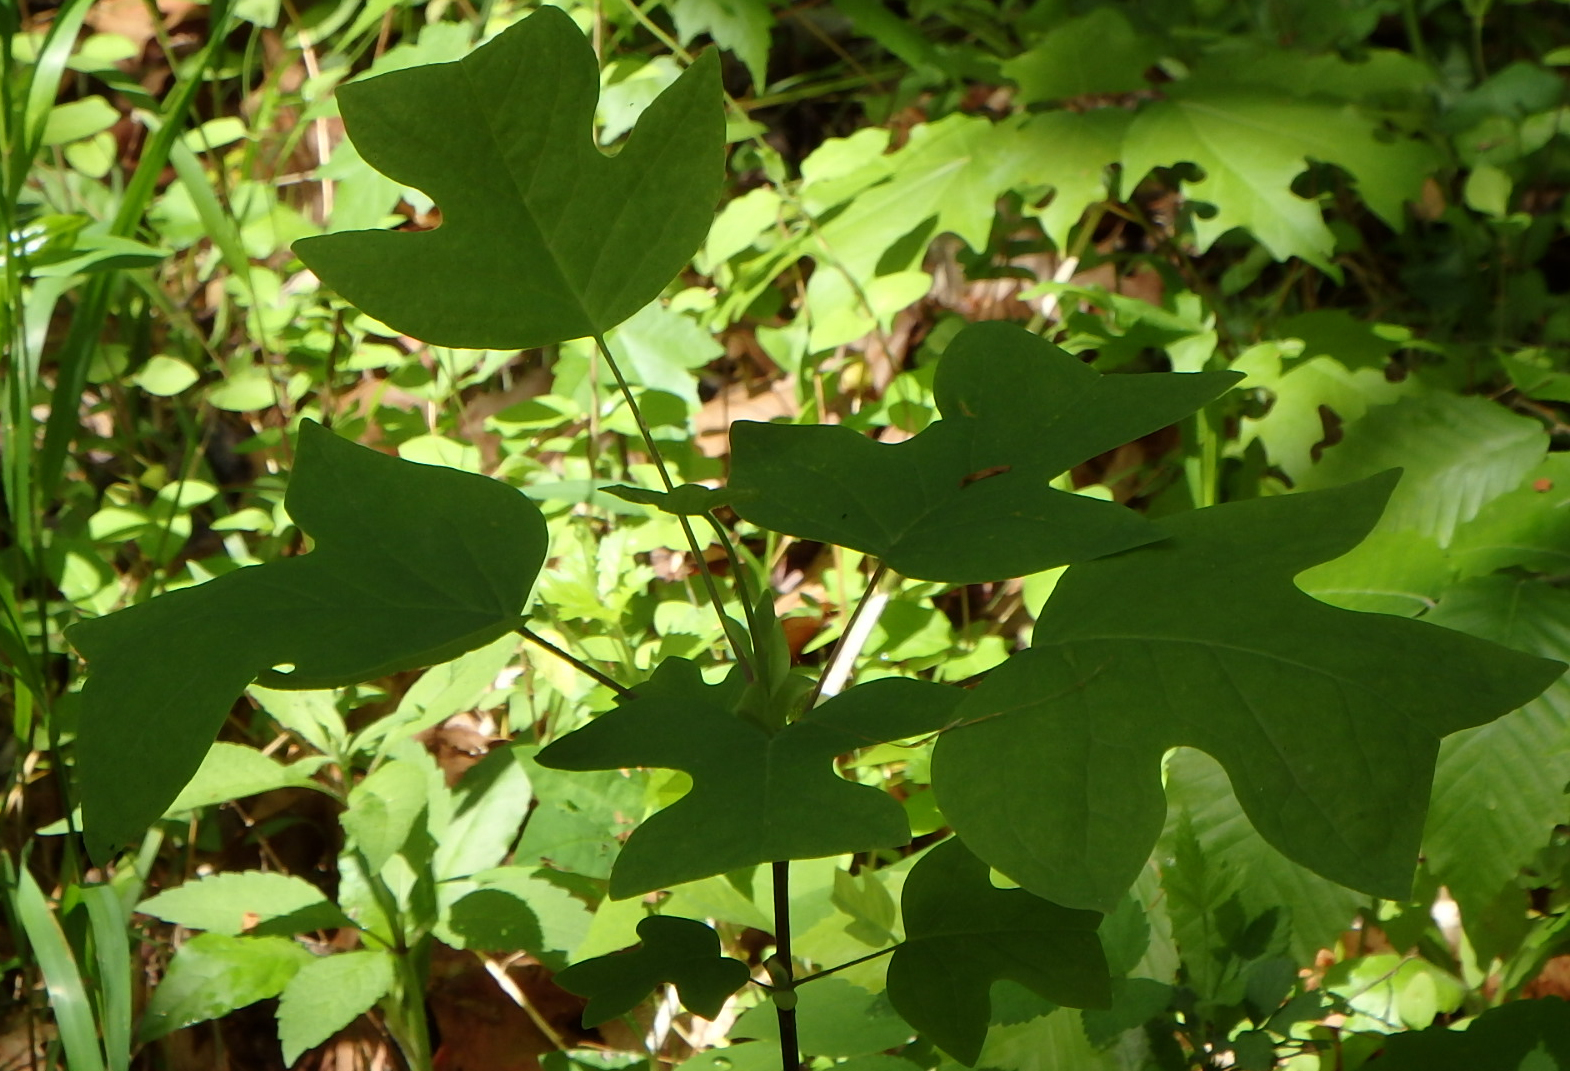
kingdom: Plantae
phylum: Tracheophyta
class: Magnoliopsida
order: Magnoliales
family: Magnoliaceae
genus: Liriodendron
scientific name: Liriodendron tulipifera
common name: Tulip tree
